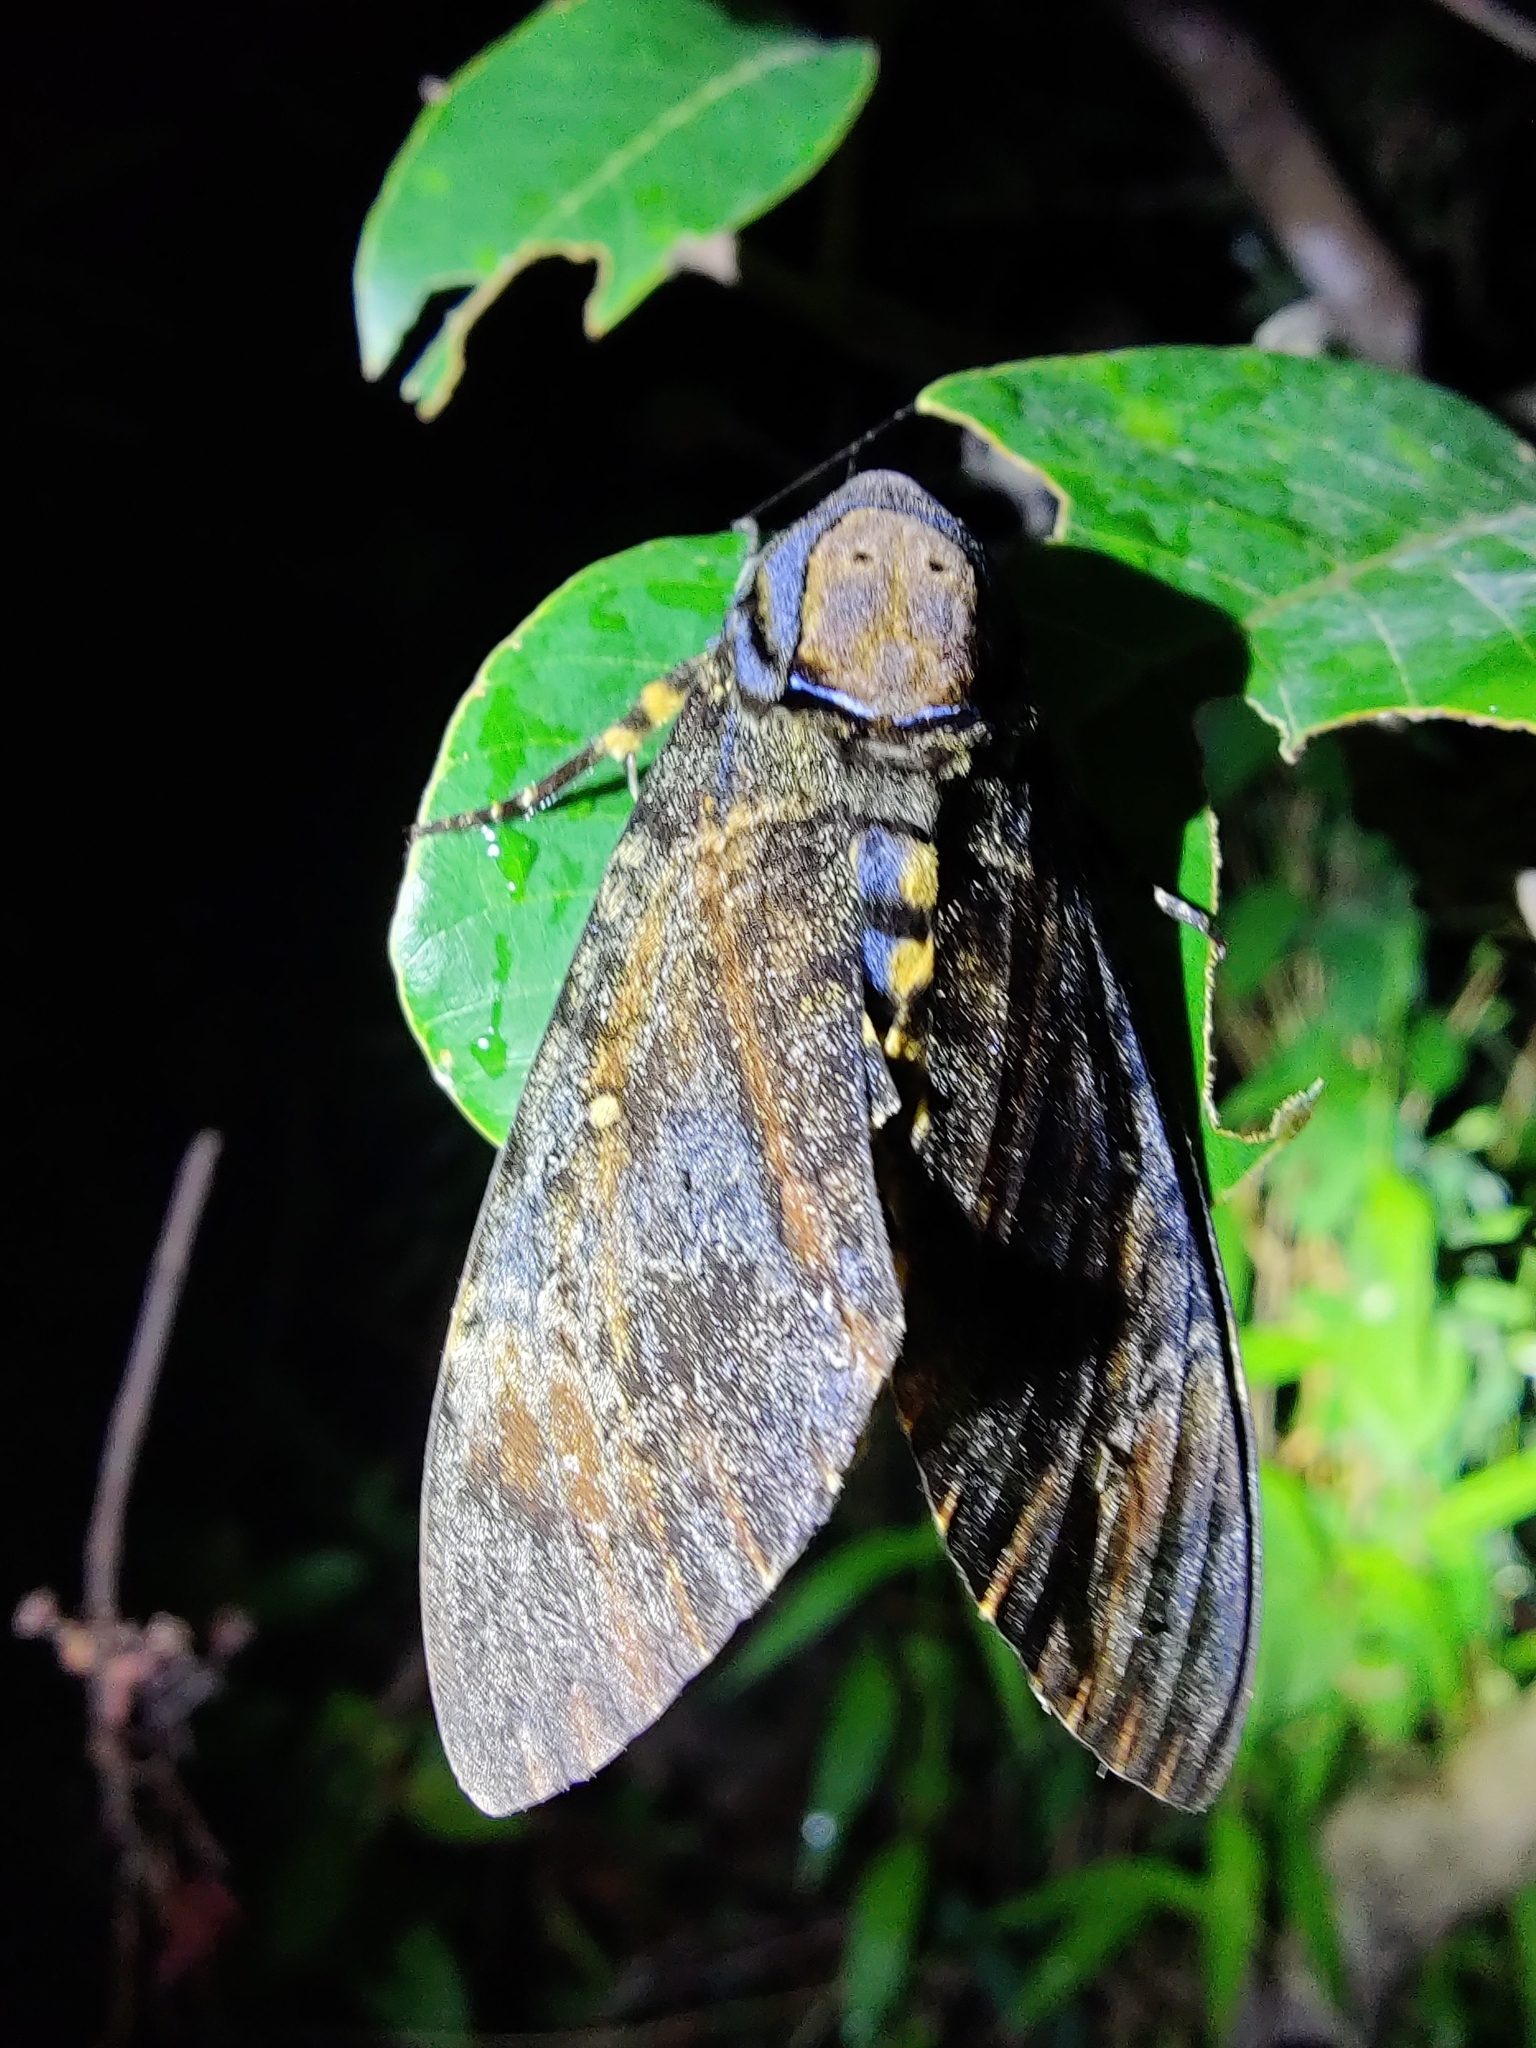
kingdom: Animalia
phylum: Arthropoda
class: Insecta
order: Lepidoptera
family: Sphingidae
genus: Acherontia
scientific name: Acherontia styx
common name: Death's-head hawk moth
